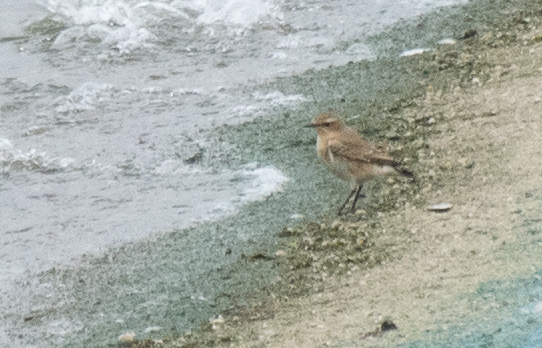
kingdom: Animalia
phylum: Chordata
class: Aves
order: Passeriformes
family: Muscicapidae
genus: Oenanthe
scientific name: Oenanthe oenanthe
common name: Northern wheatear
